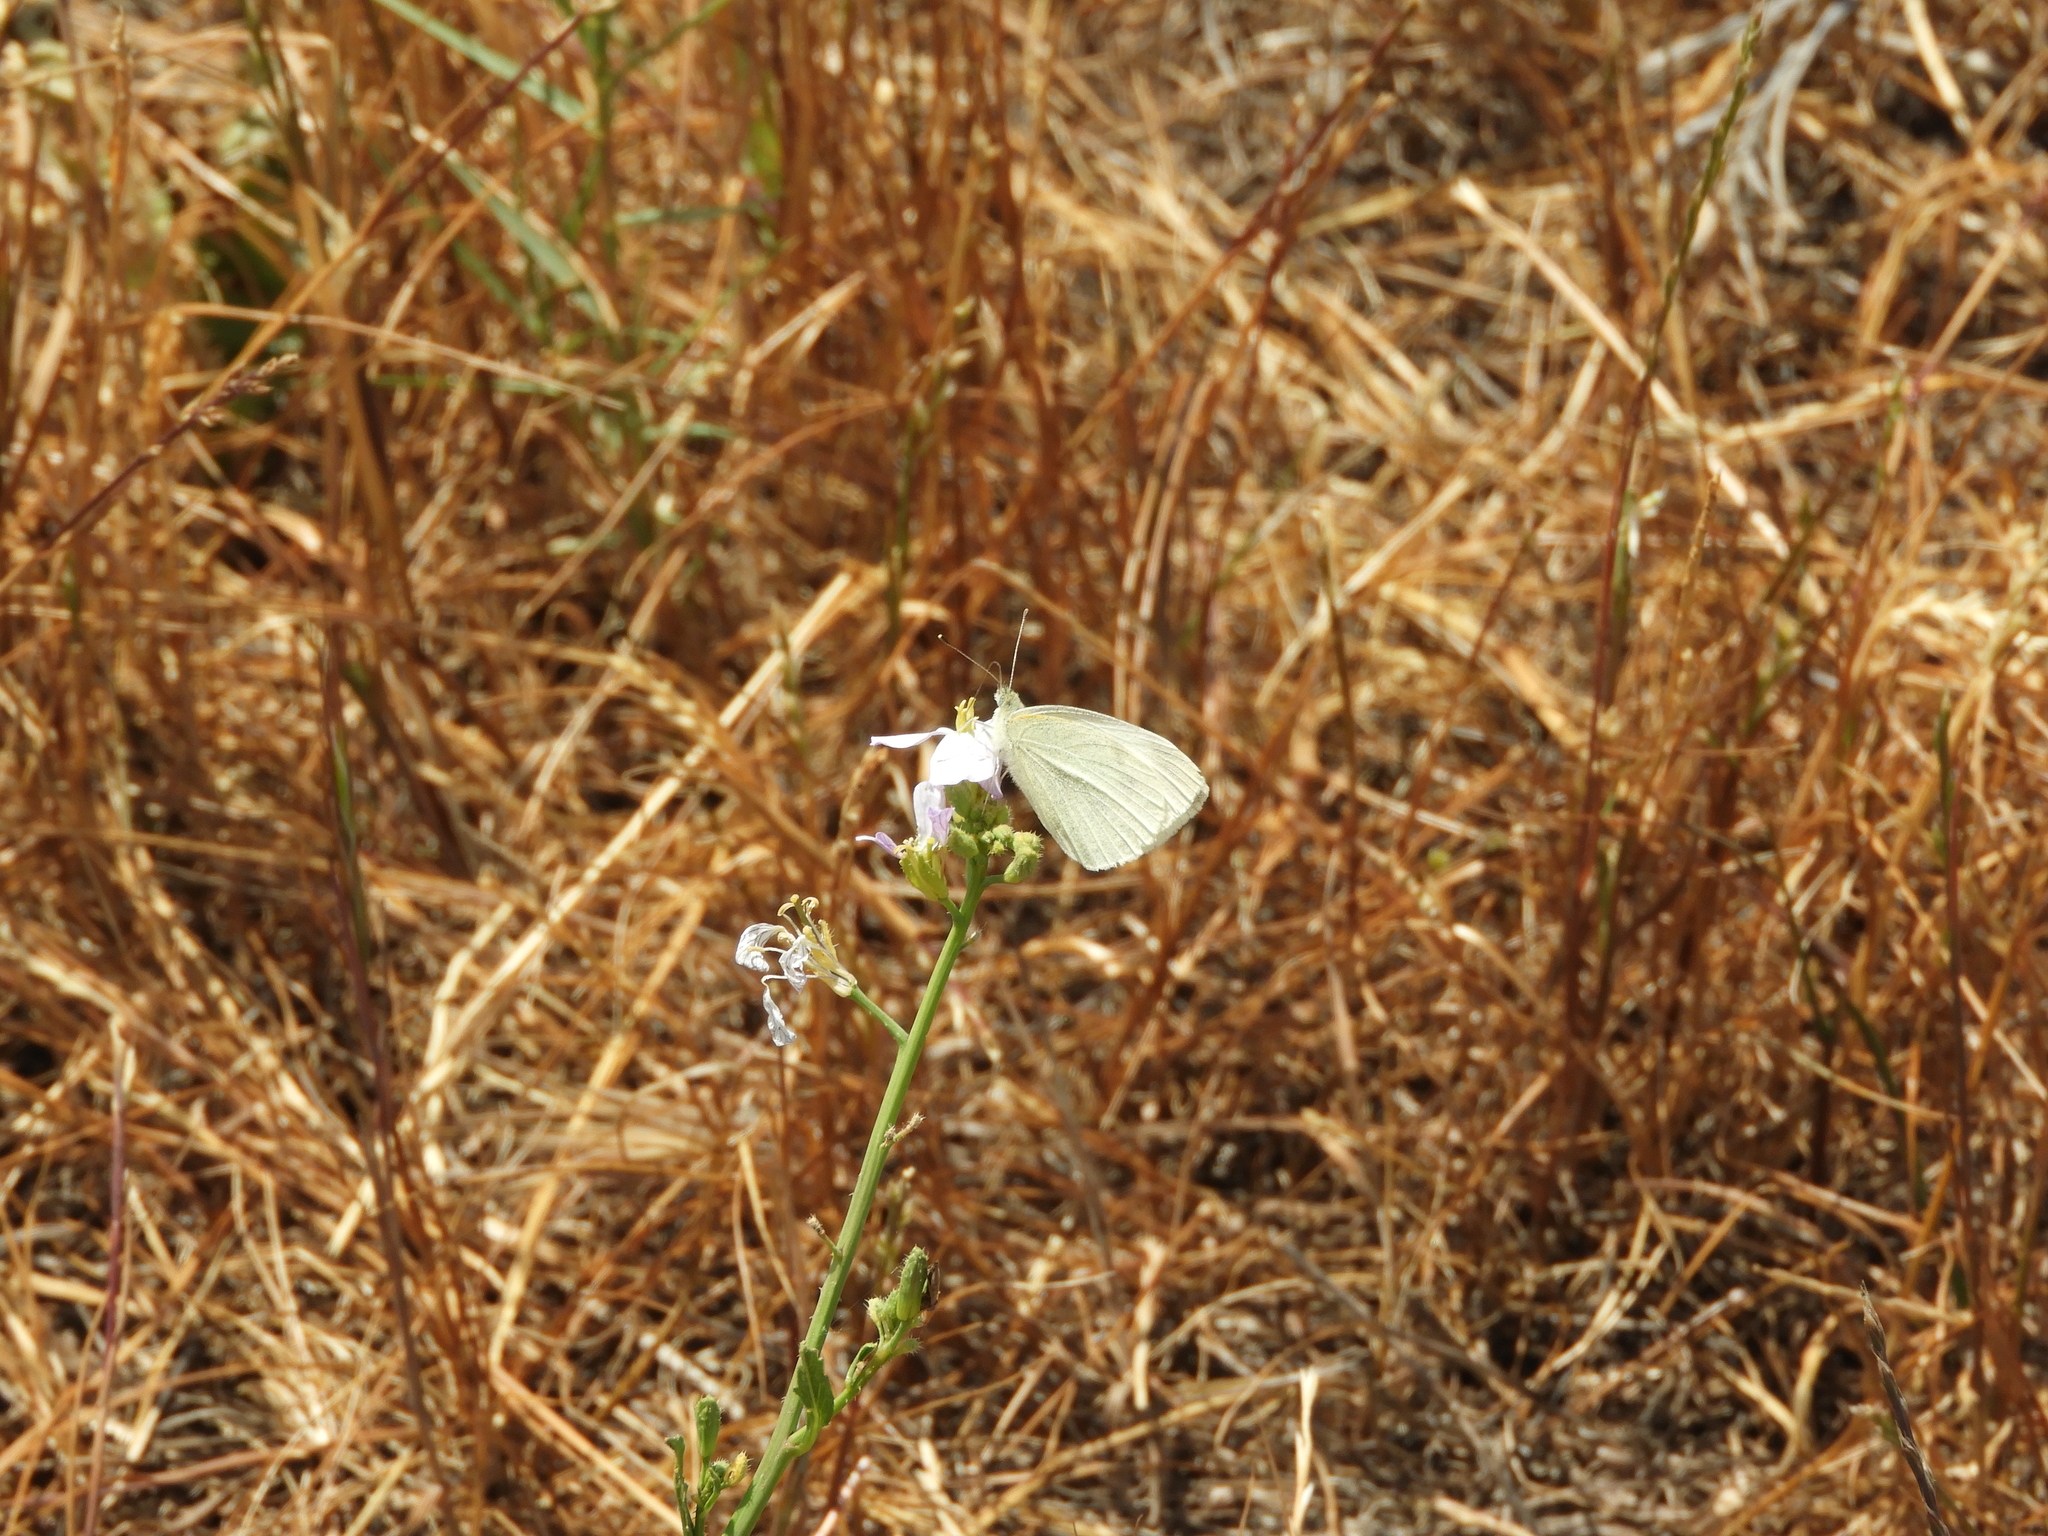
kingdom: Animalia
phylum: Arthropoda
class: Insecta
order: Lepidoptera
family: Pieridae
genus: Pieris
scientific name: Pieris rapae
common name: Small white
